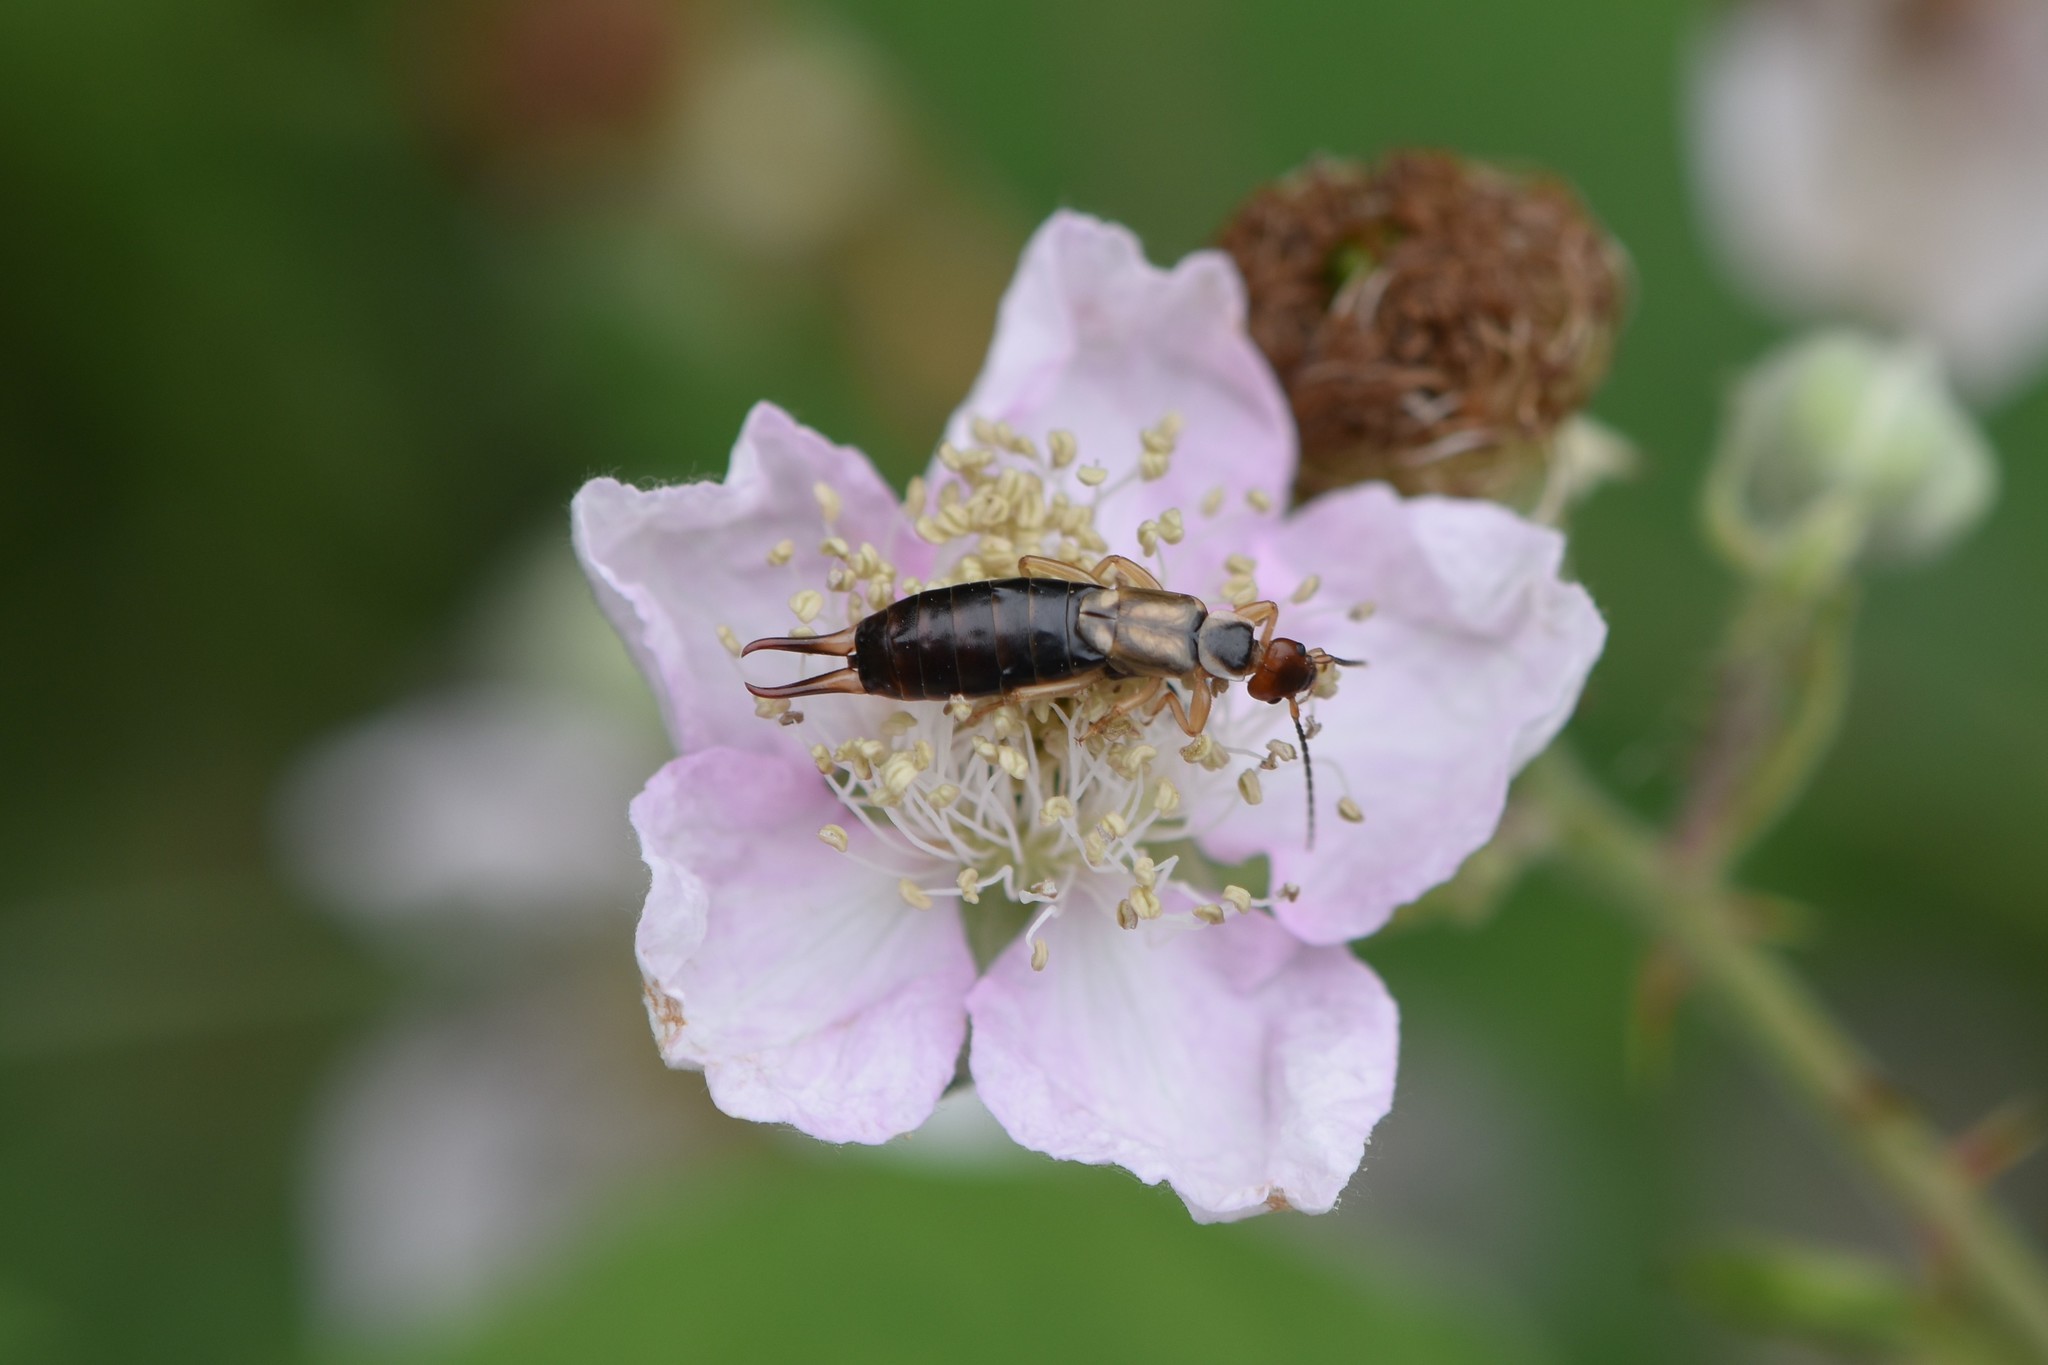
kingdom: Animalia
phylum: Arthropoda
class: Insecta
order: Dermaptera
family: Forficulidae
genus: Forficula
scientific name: Forficula
